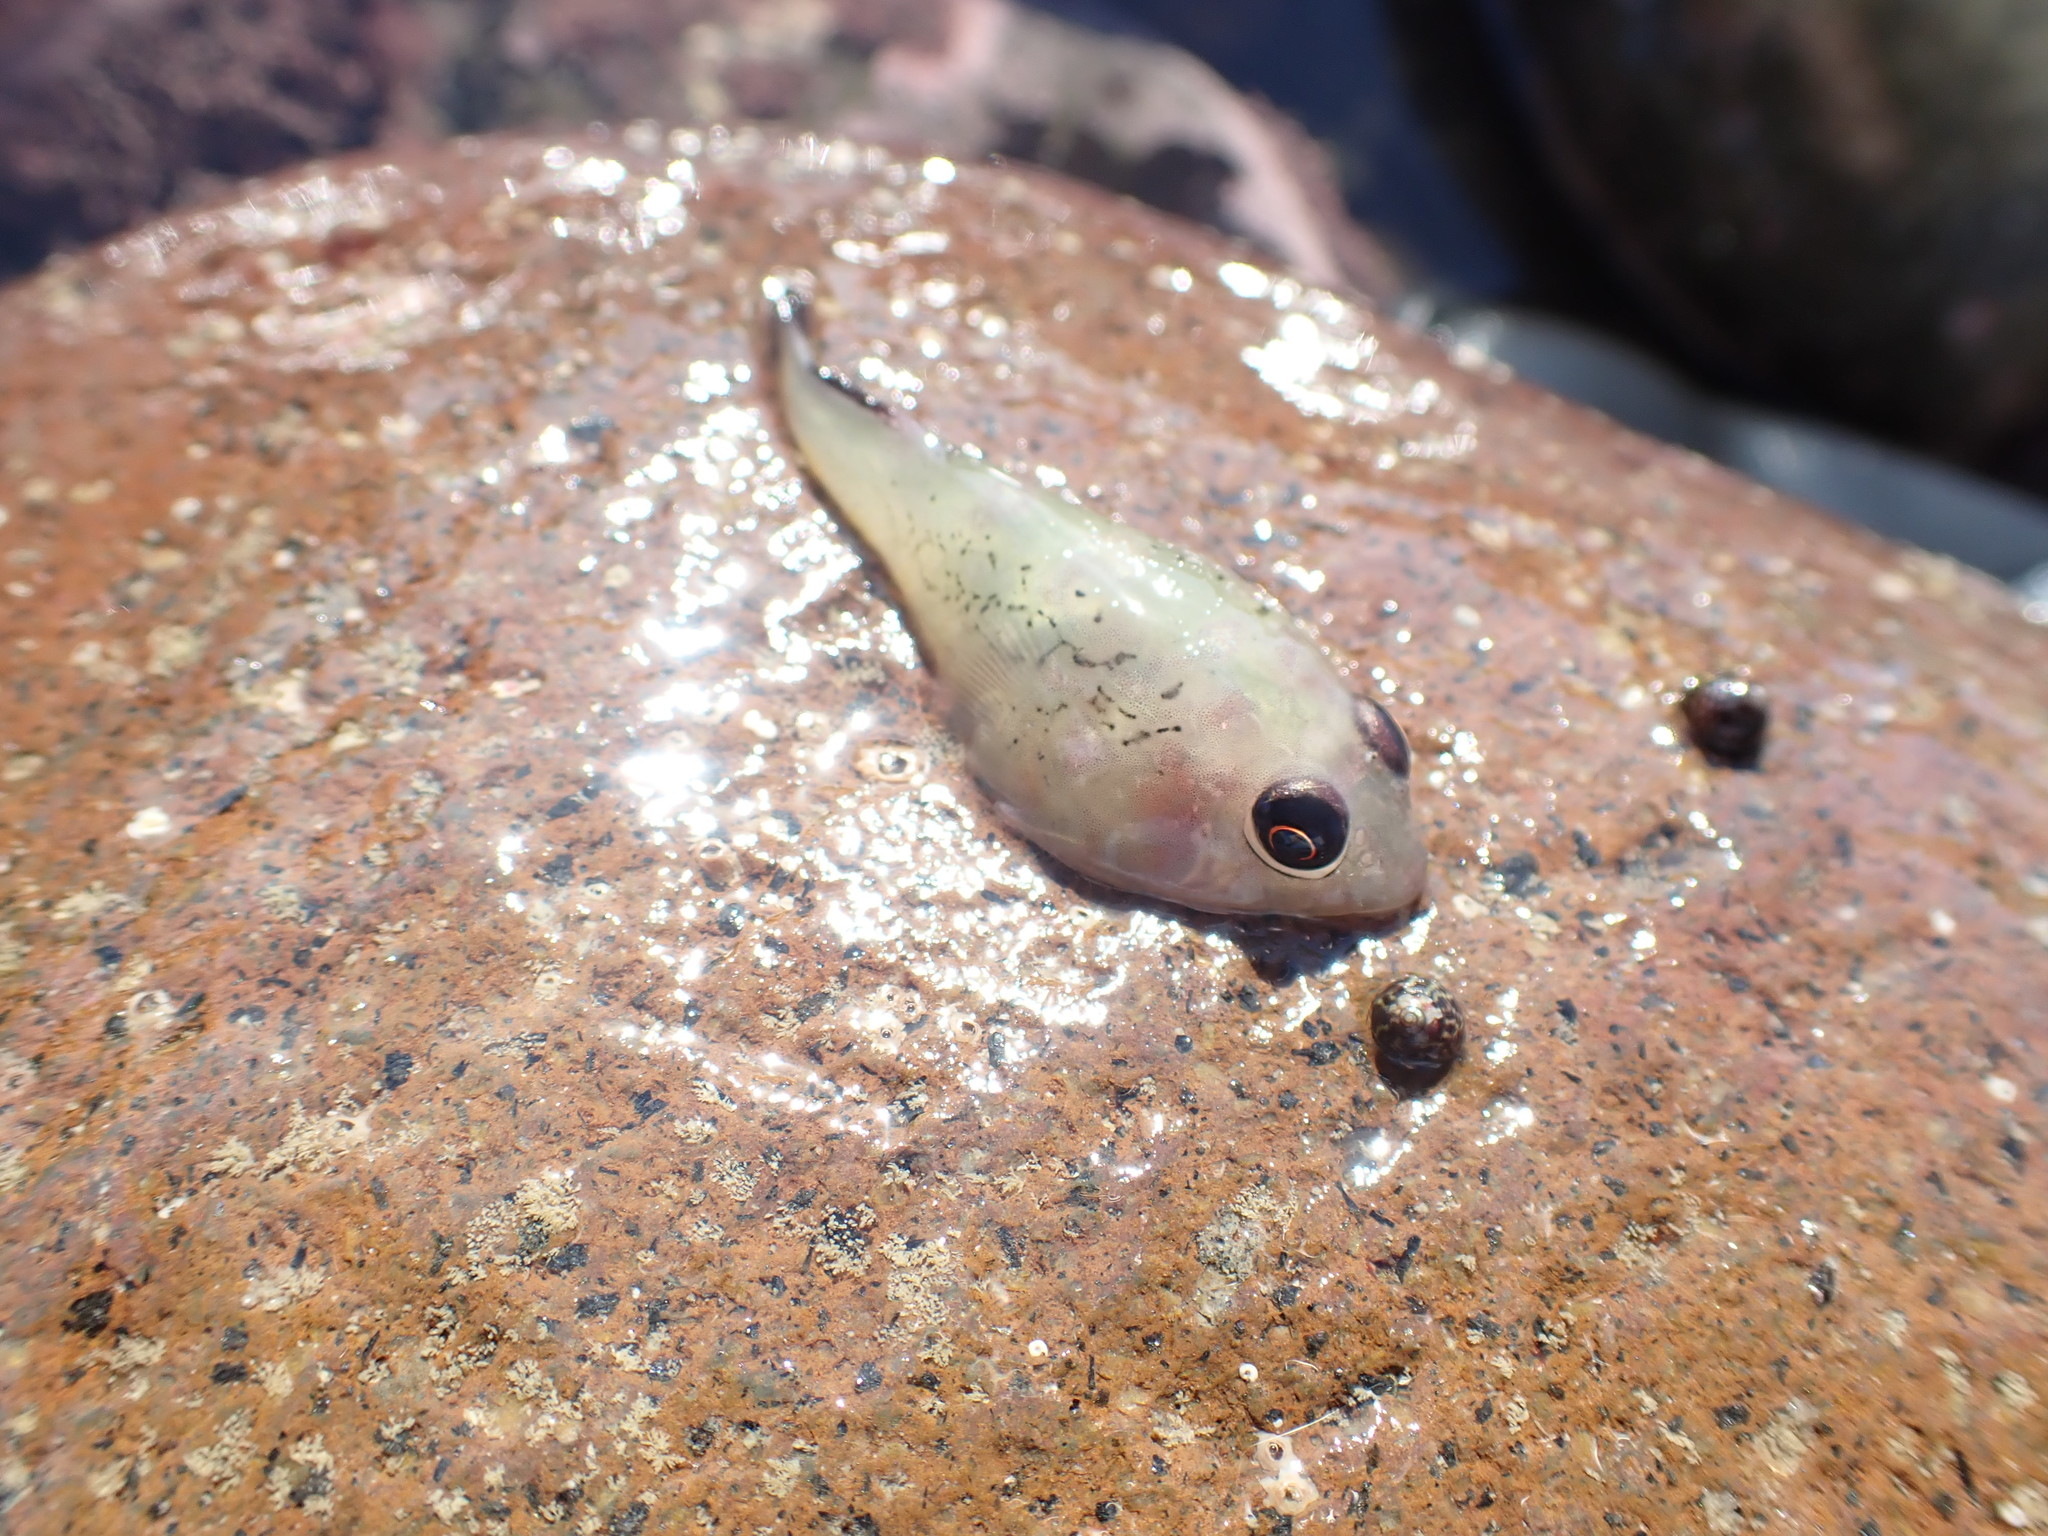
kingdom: Animalia
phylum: Chordata
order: Gobiesociformes
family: Gobiesocidae
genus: Diplocrepis
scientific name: Diplocrepis puniceus
